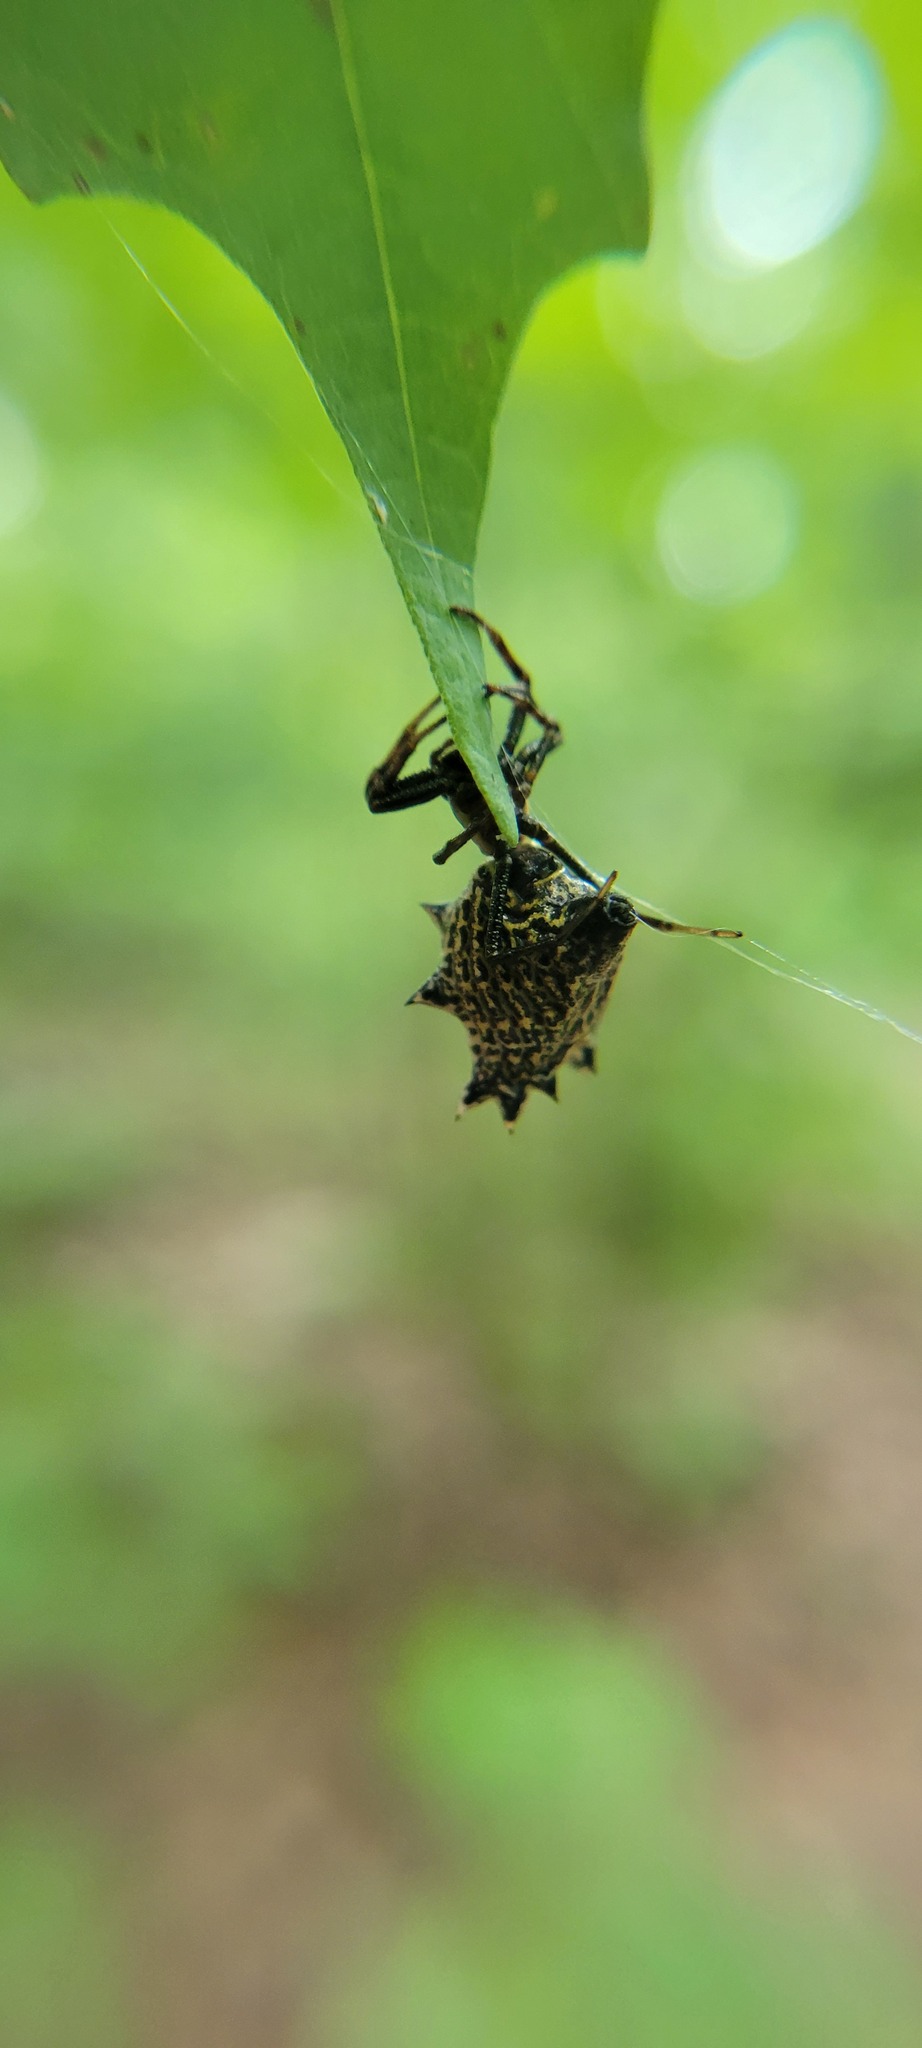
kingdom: Animalia
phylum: Arthropoda
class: Arachnida
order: Araneae
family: Araneidae
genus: Micrathena
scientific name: Micrathena gracilis
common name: Orb weavers
